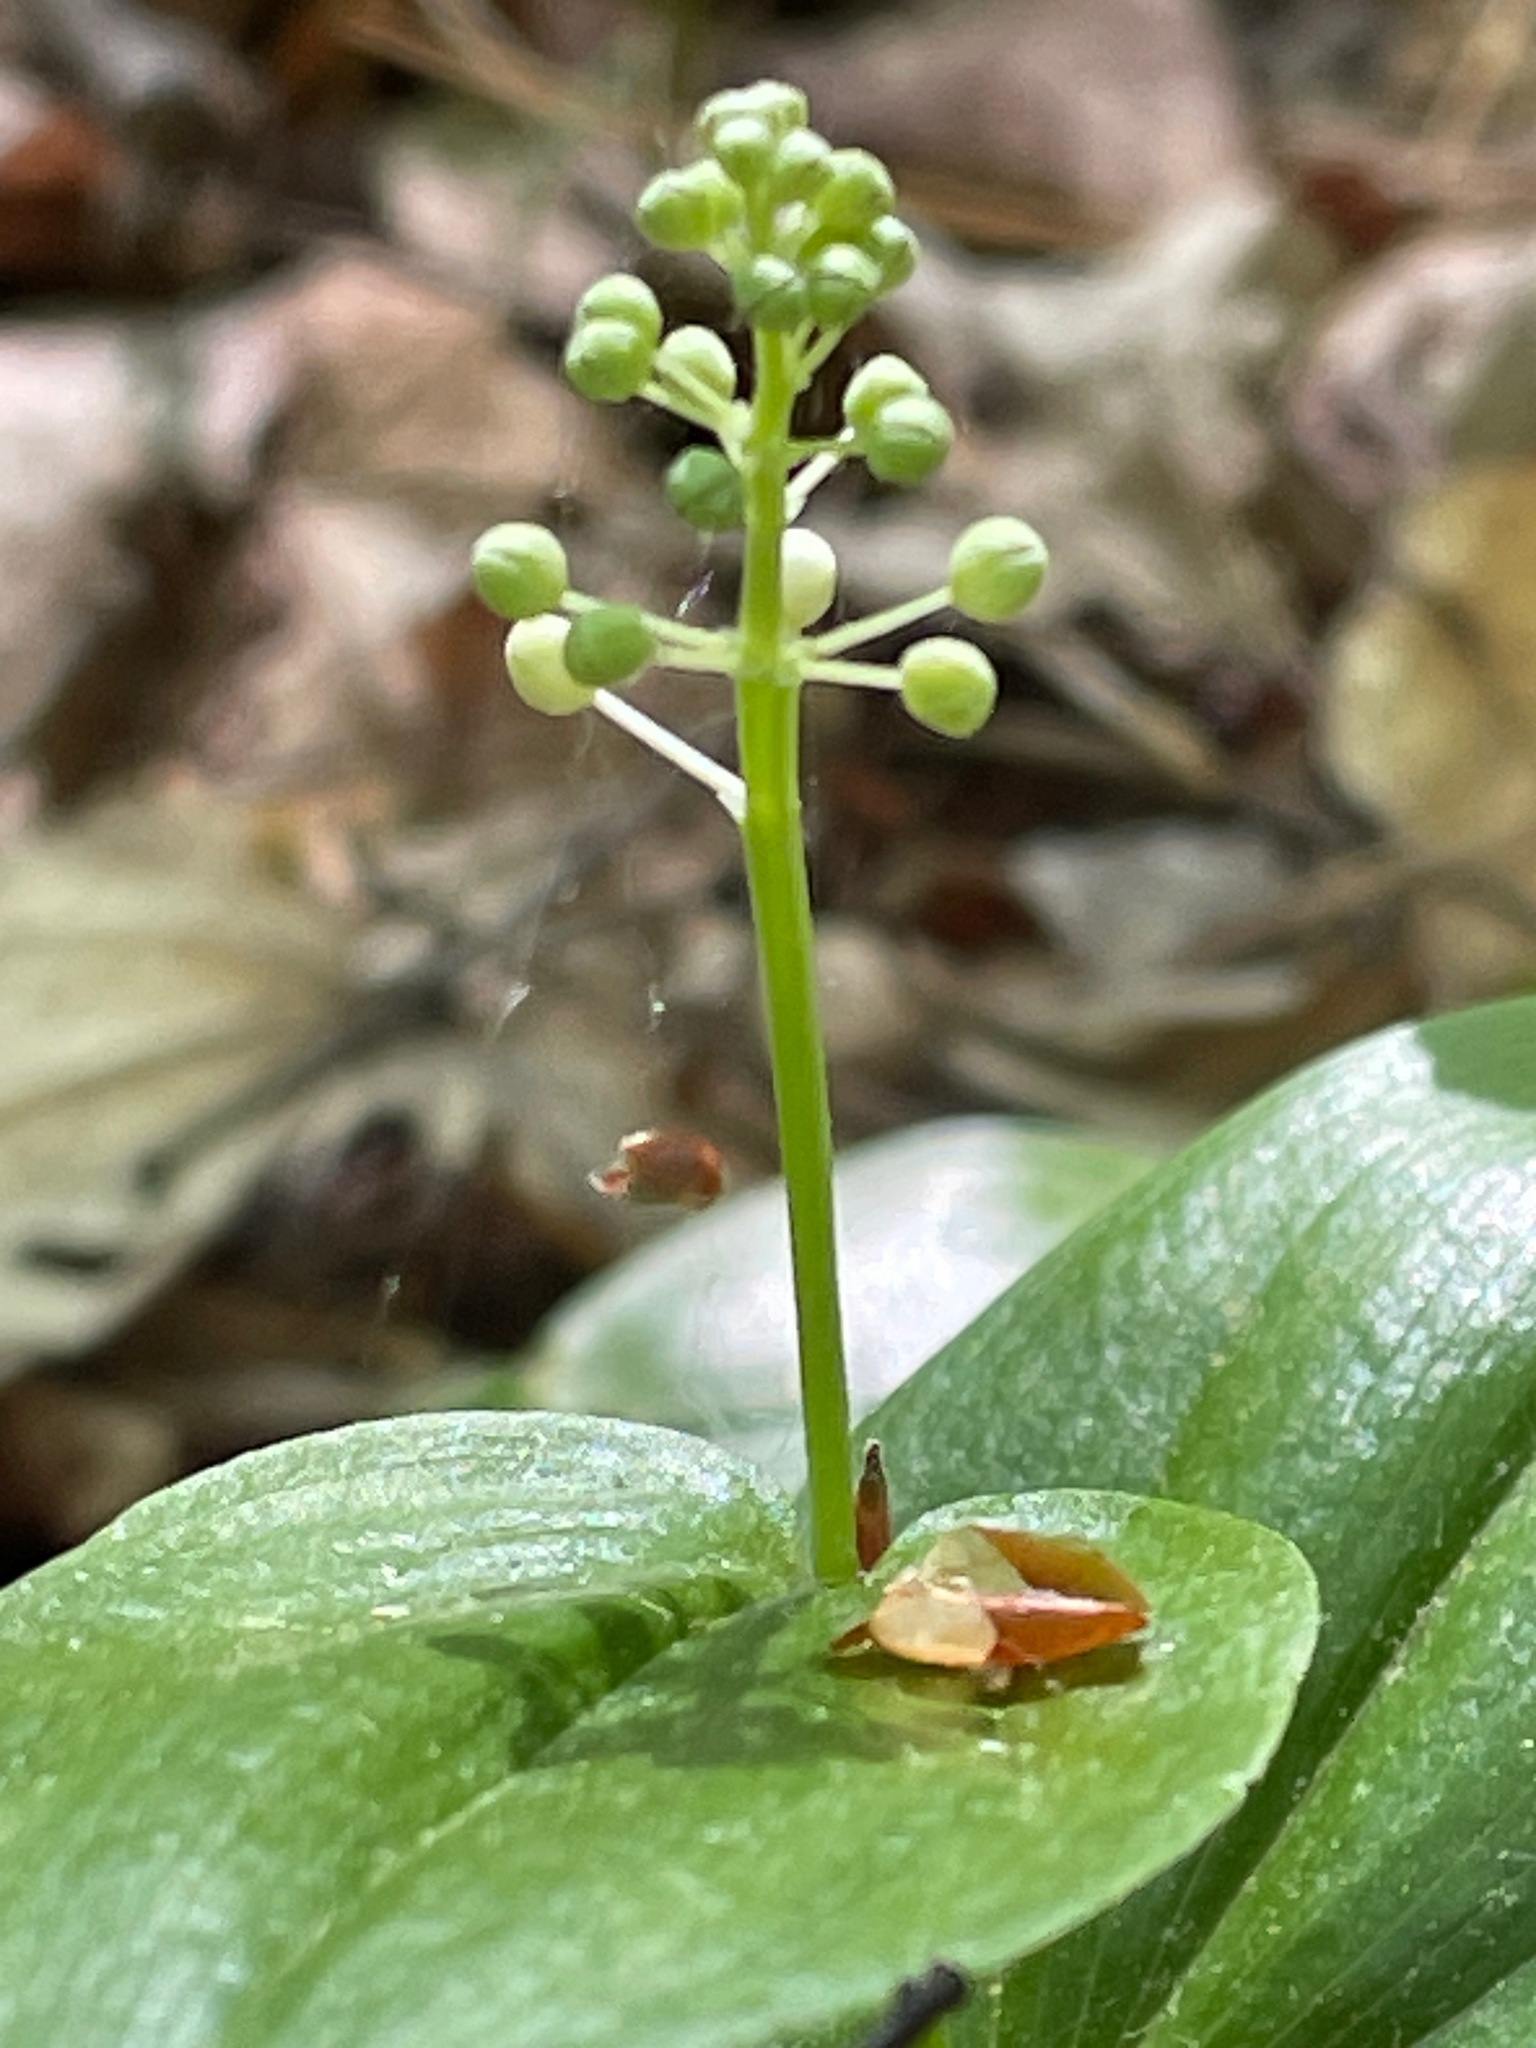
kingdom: Plantae
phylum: Tracheophyta
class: Liliopsida
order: Asparagales
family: Asparagaceae
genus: Maianthemum
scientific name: Maianthemum canadense
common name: False lily-of-the-valley
